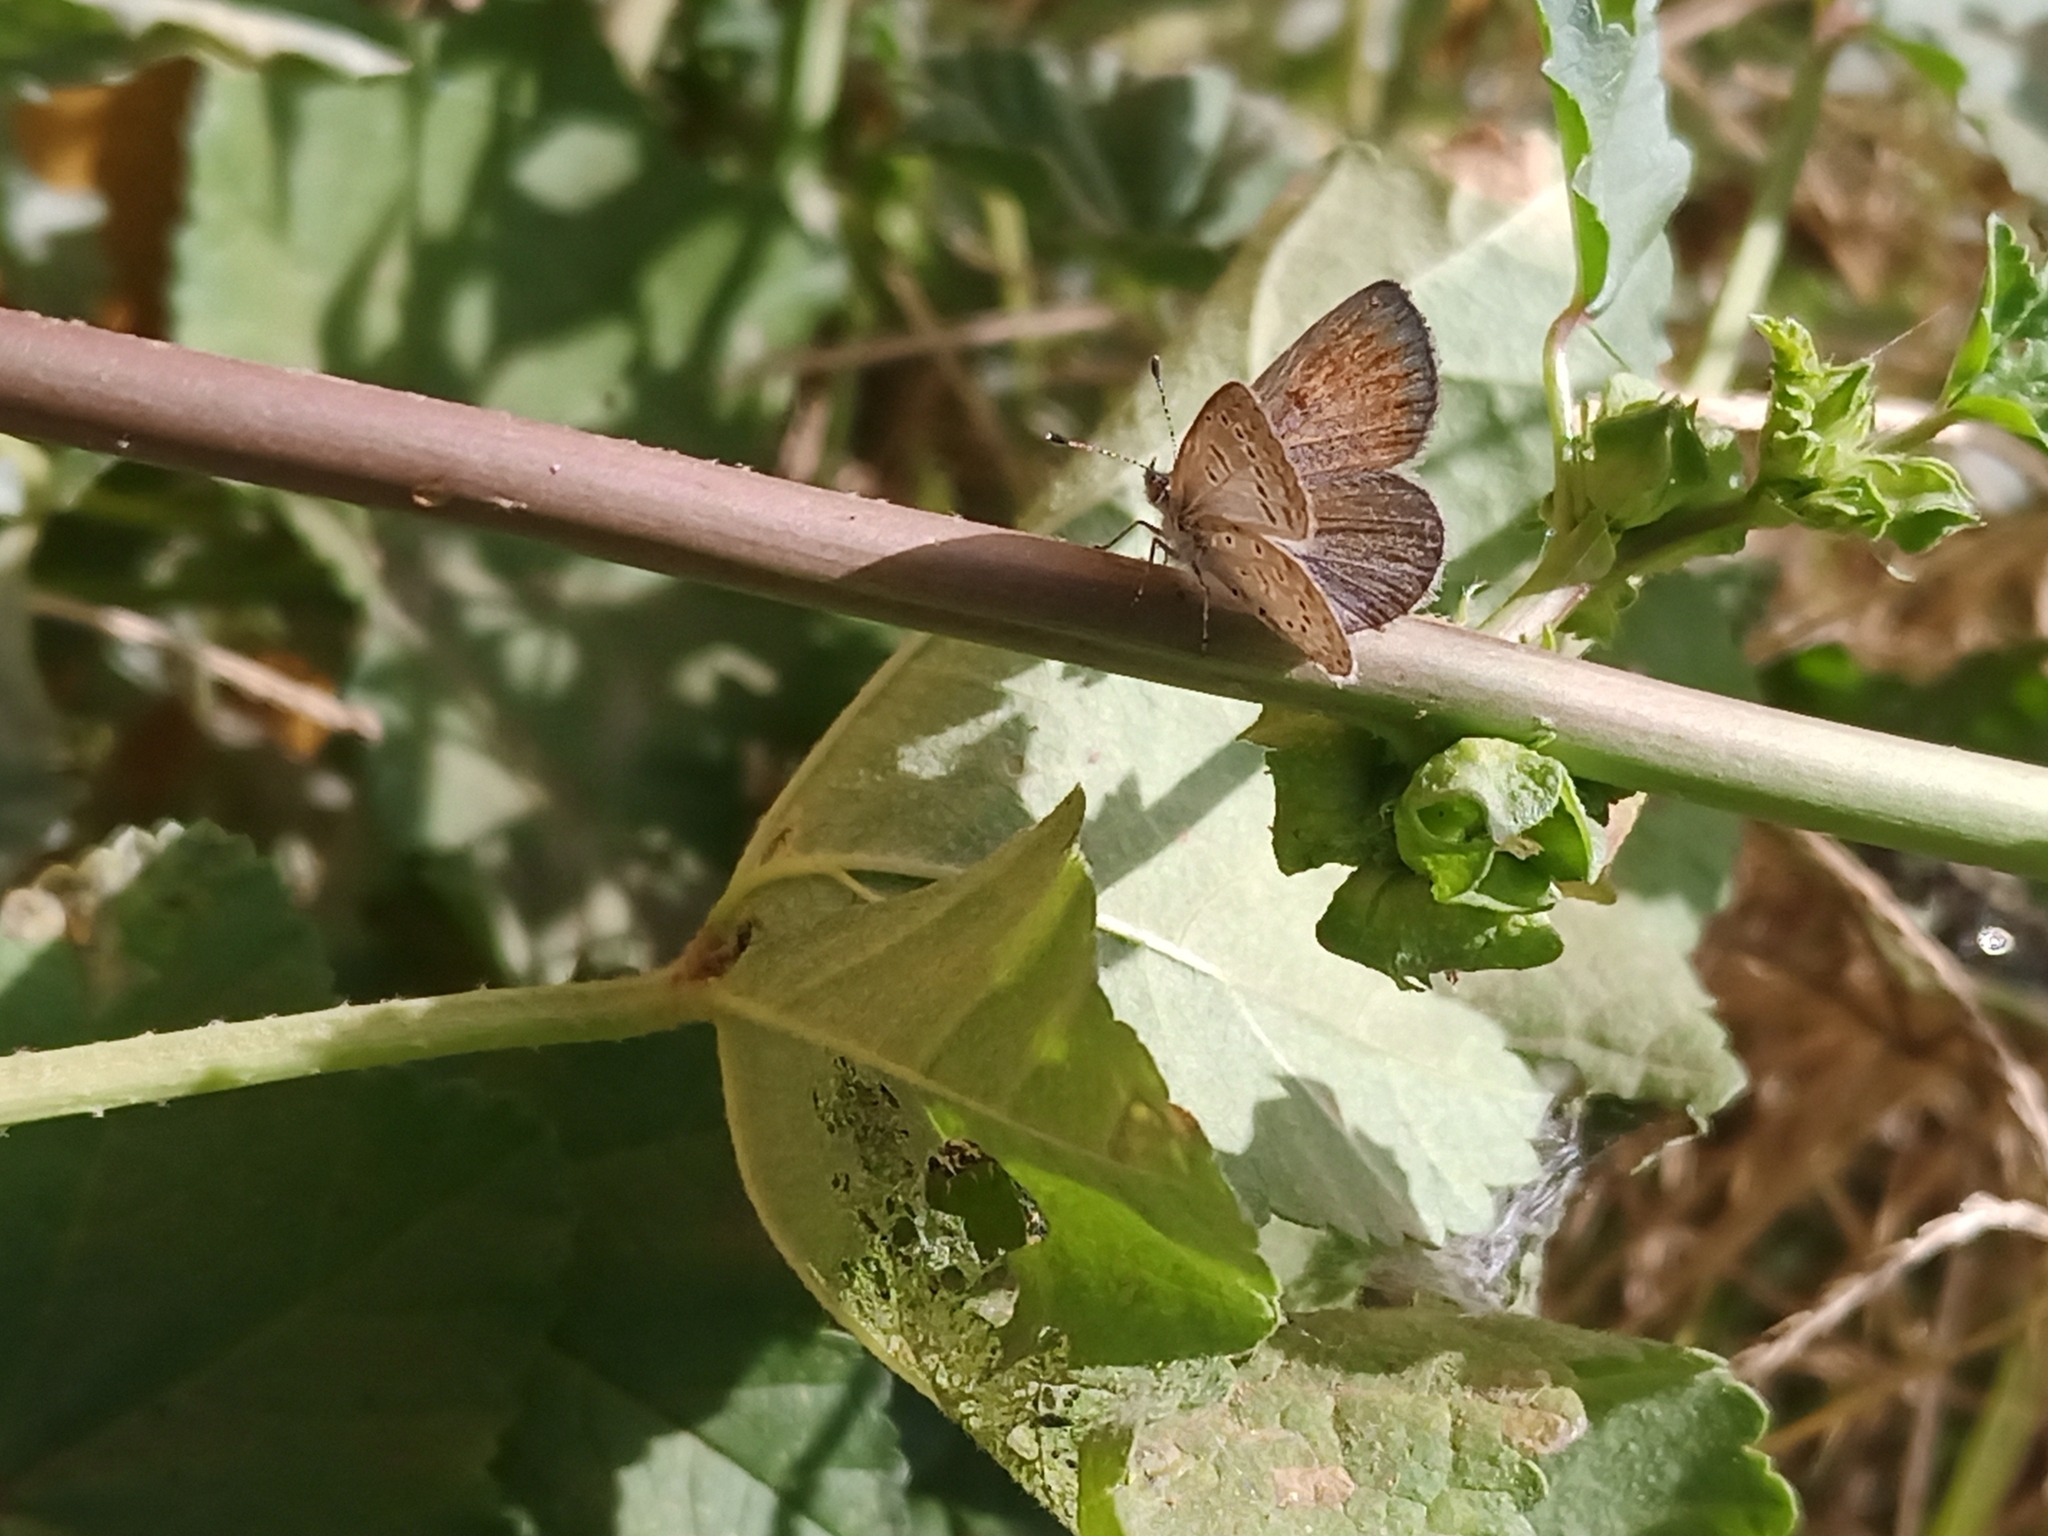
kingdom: Animalia
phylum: Arthropoda
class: Insecta
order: Lepidoptera
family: Lycaenidae
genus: Zizeeria
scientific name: Zizeeria knysna
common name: African grass blue
